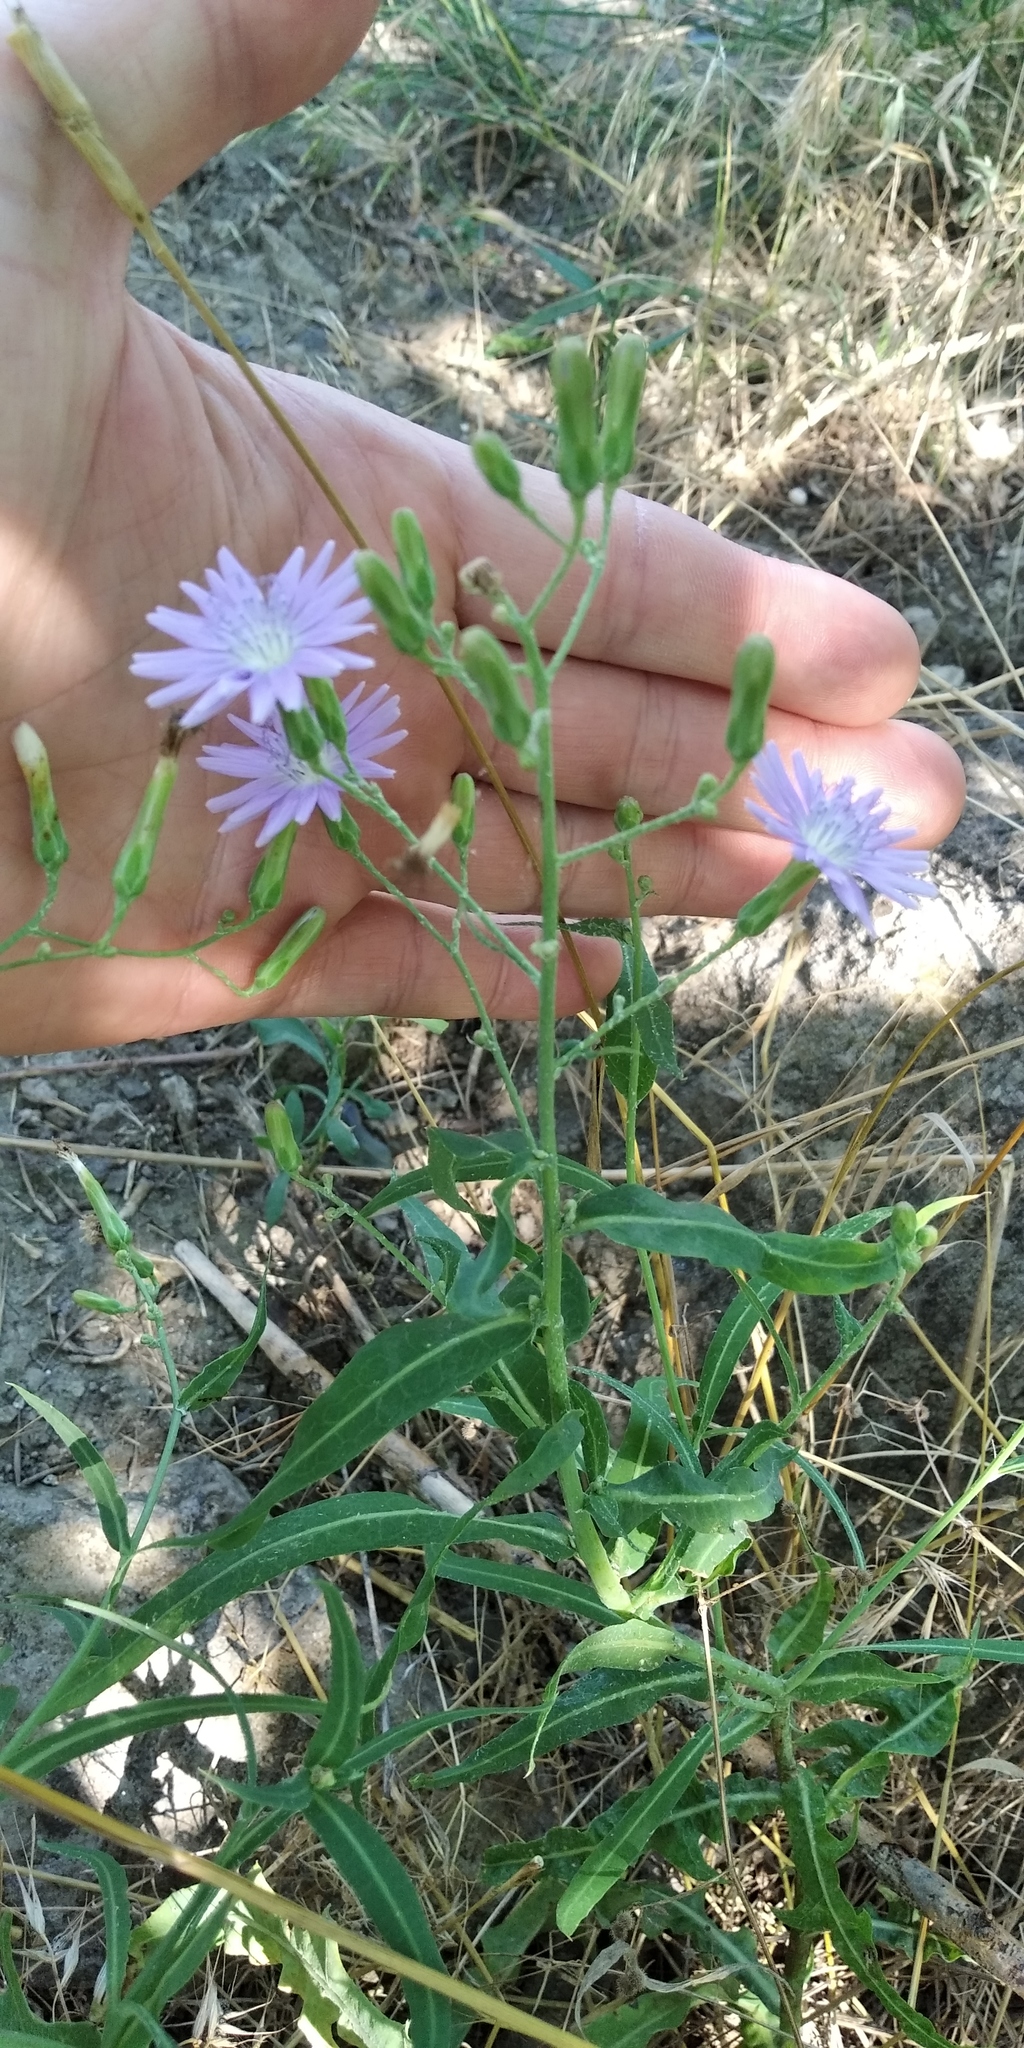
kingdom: Plantae
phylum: Tracheophyta
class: Magnoliopsida
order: Asterales
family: Asteraceae
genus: Lactuca
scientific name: Lactuca tatarica
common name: Blue lettuce
